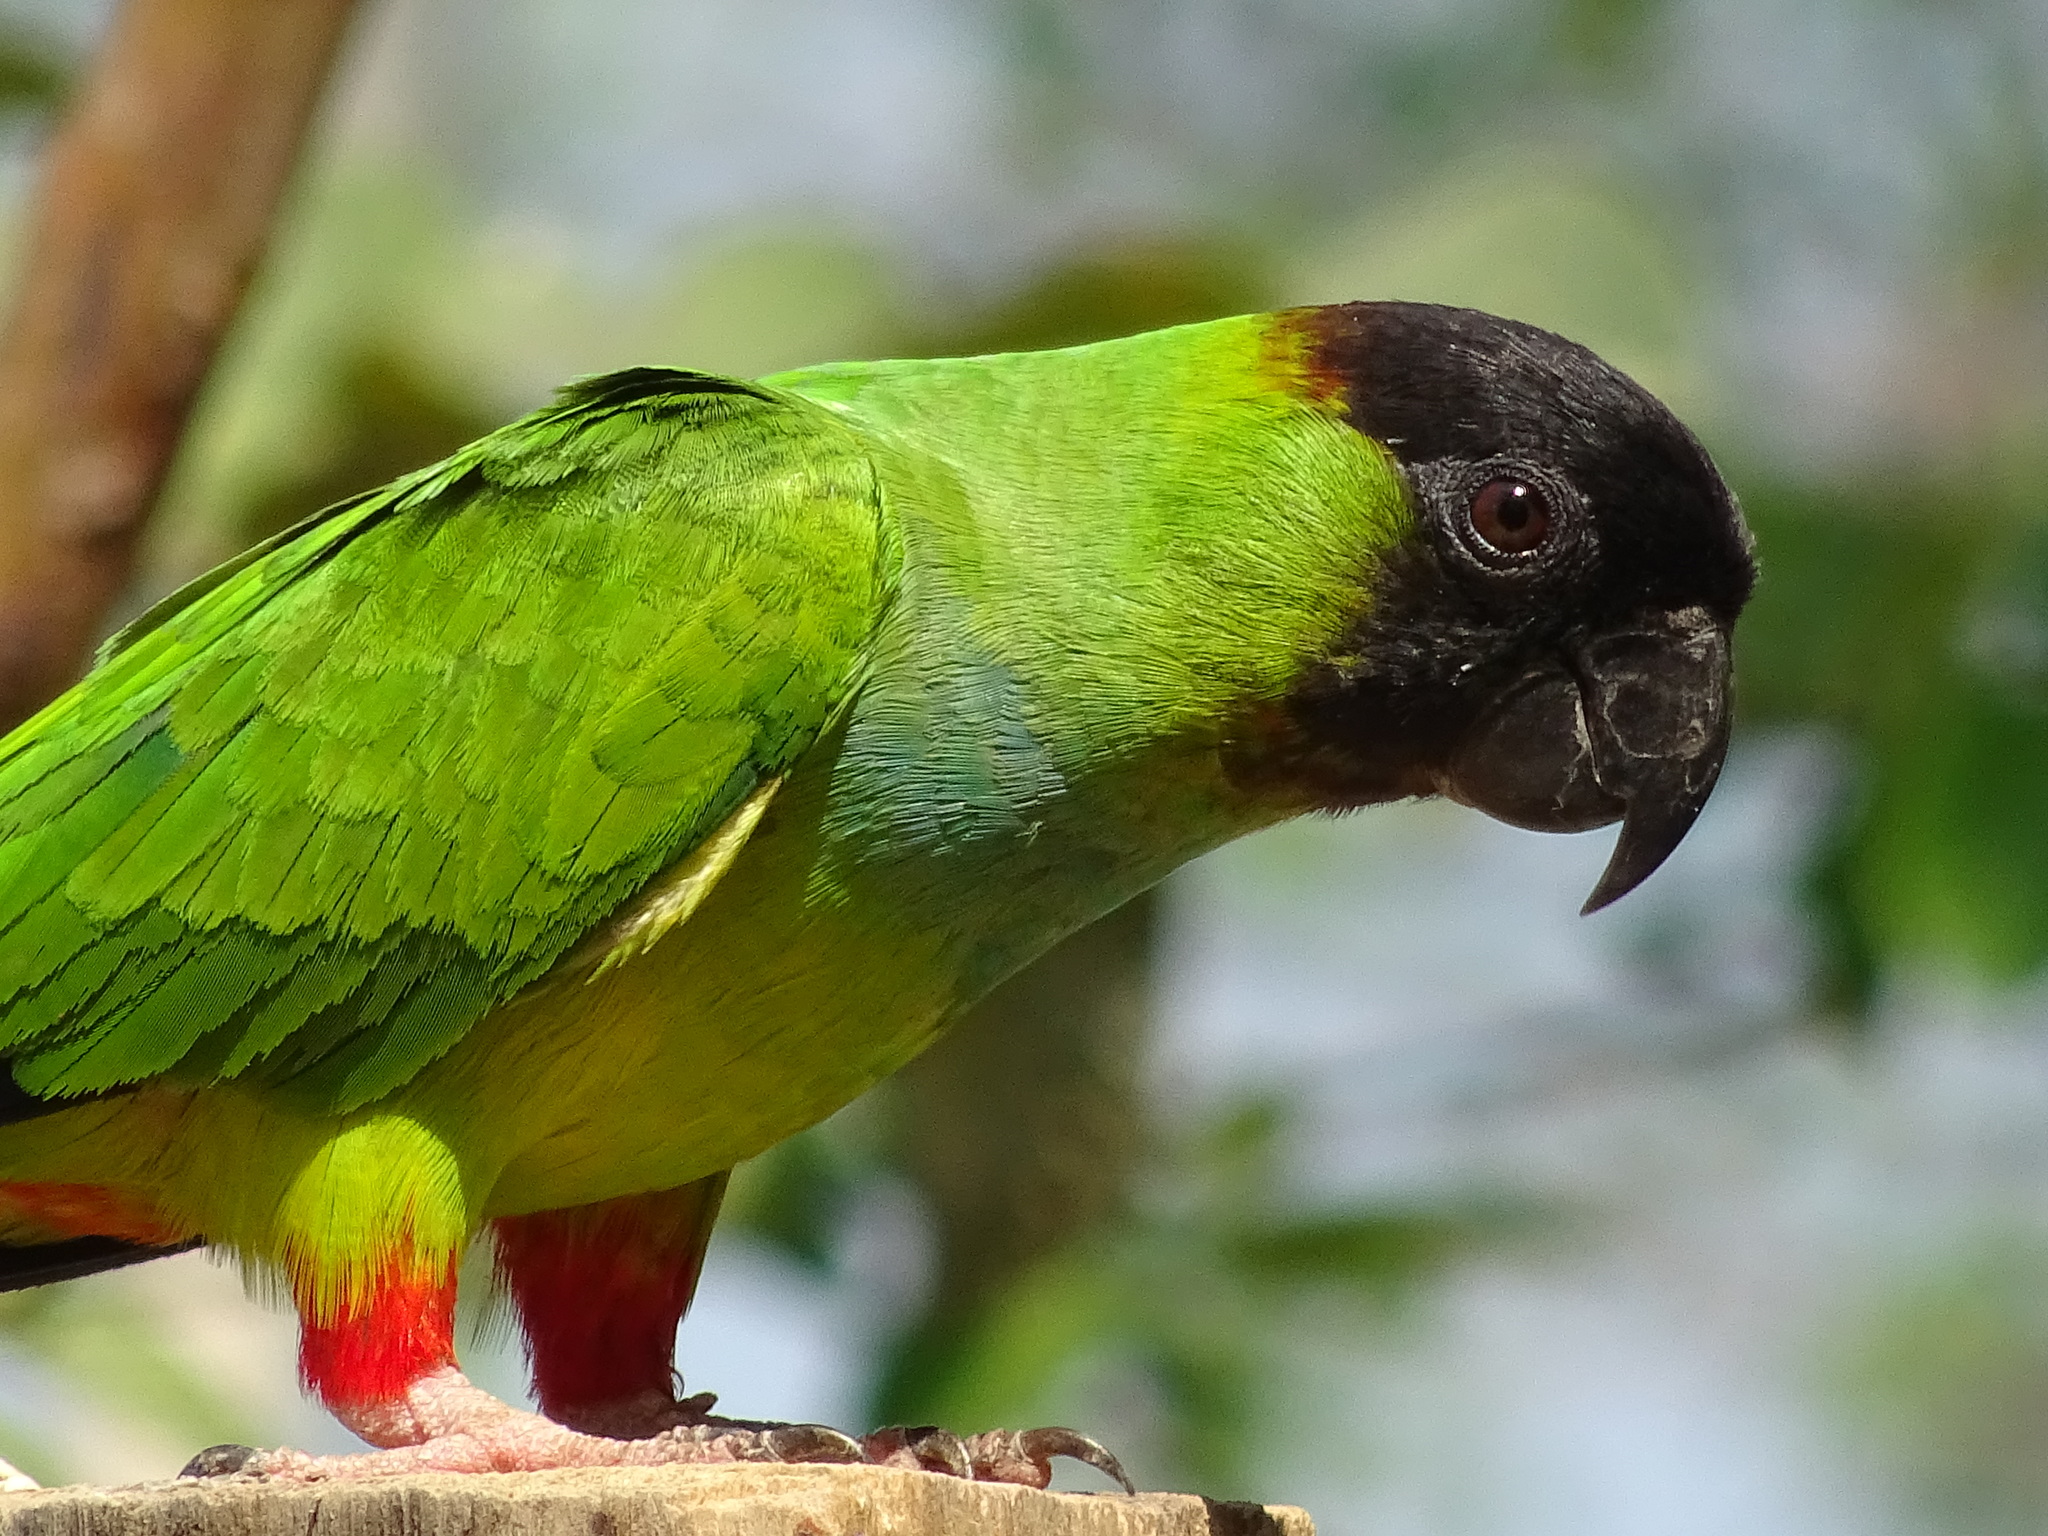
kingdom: Animalia
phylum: Chordata
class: Aves
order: Psittaciformes
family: Psittacidae
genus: Nandayus
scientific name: Nandayus nenday
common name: Nanday parakeet
